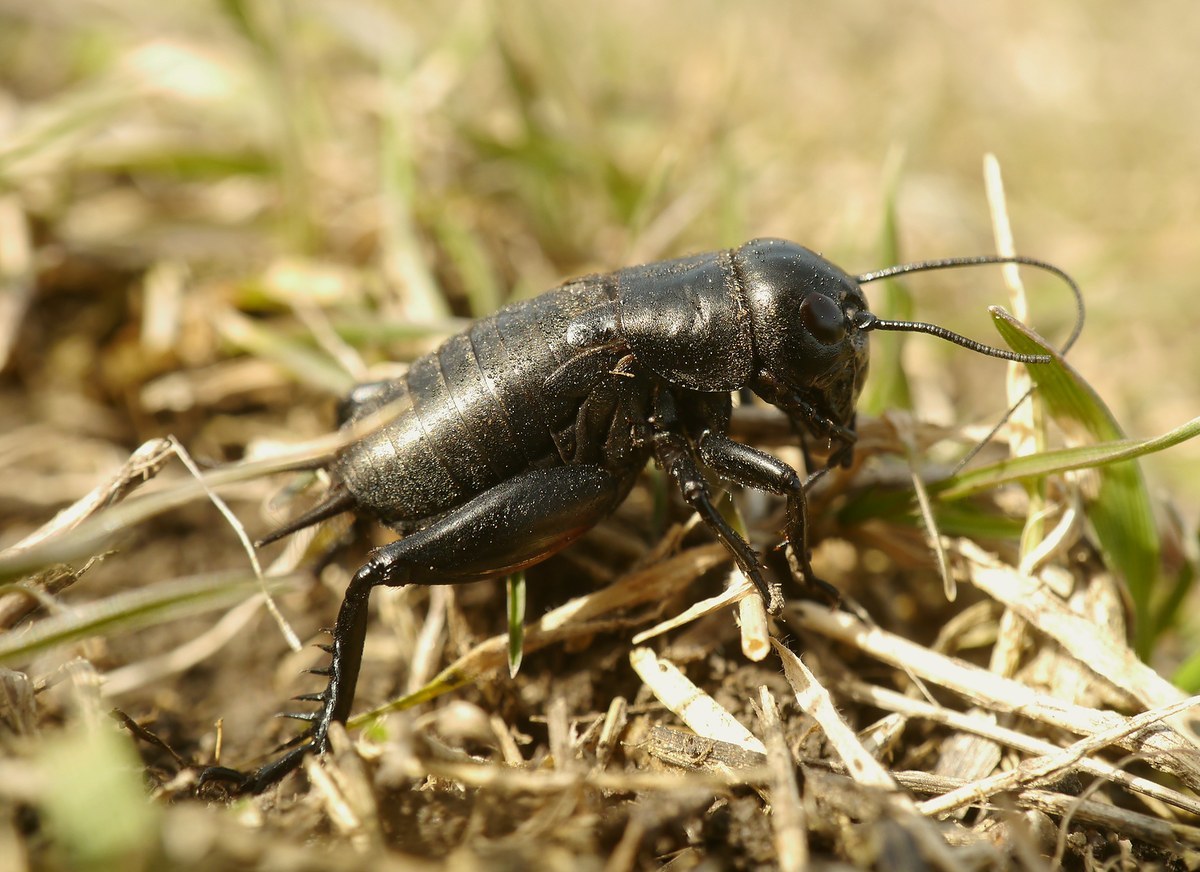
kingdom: Animalia
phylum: Arthropoda
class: Insecta
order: Orthoptera
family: Gryllidae
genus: Gryllus
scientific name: Gryllus campestris
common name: Field cricket
